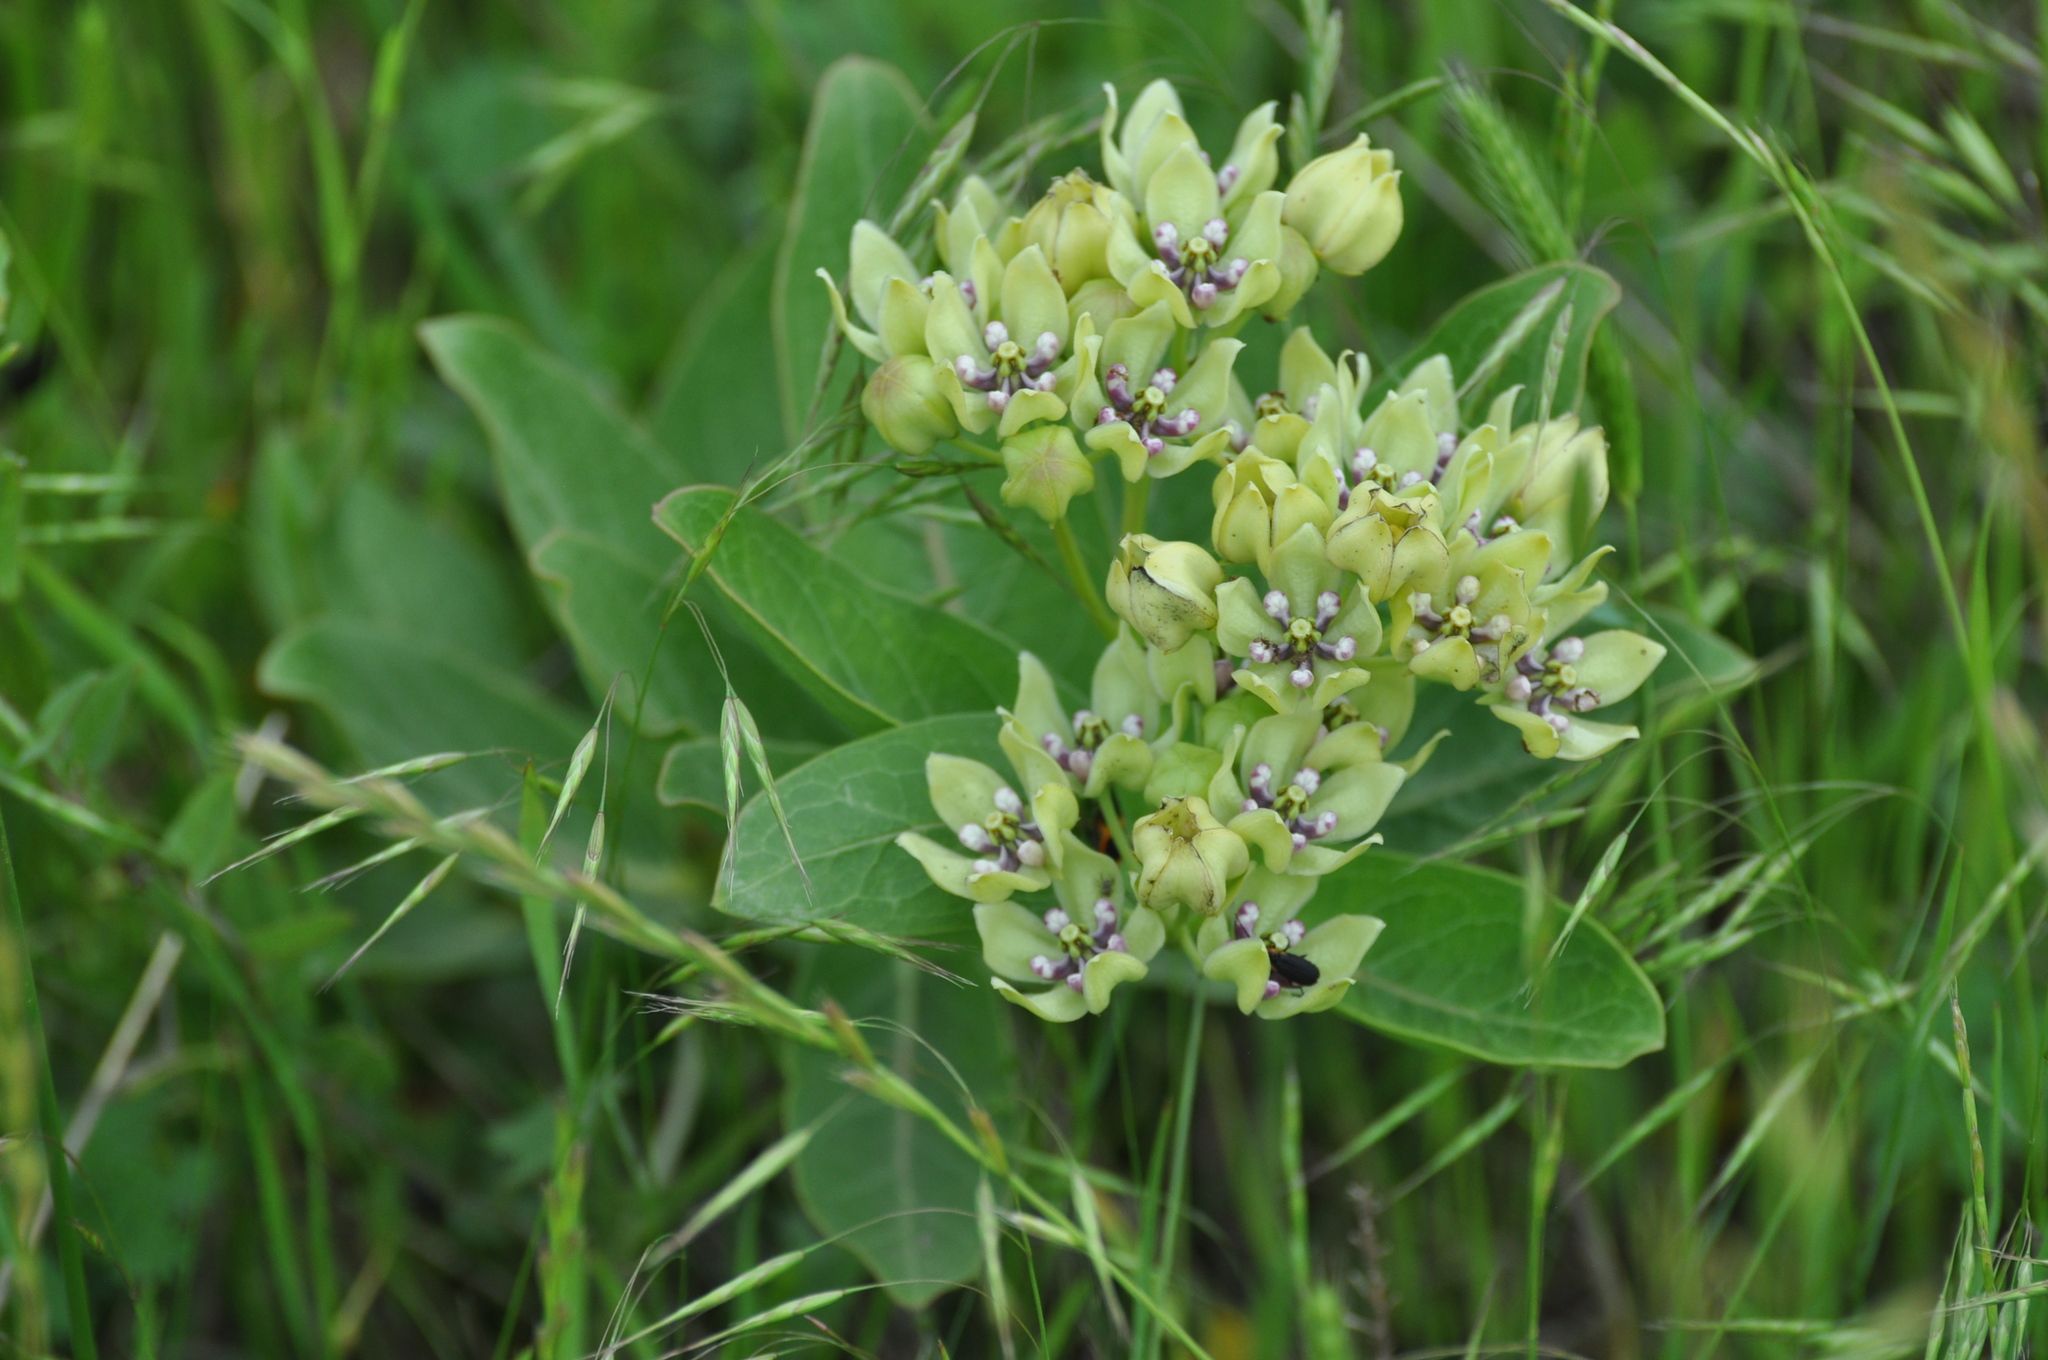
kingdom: Plantae
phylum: Tracheophyta
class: Magnoliopsida
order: Gentianales
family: Apocynaceae
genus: Asclepias
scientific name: Asclepias viridis
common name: Antelope-horns
